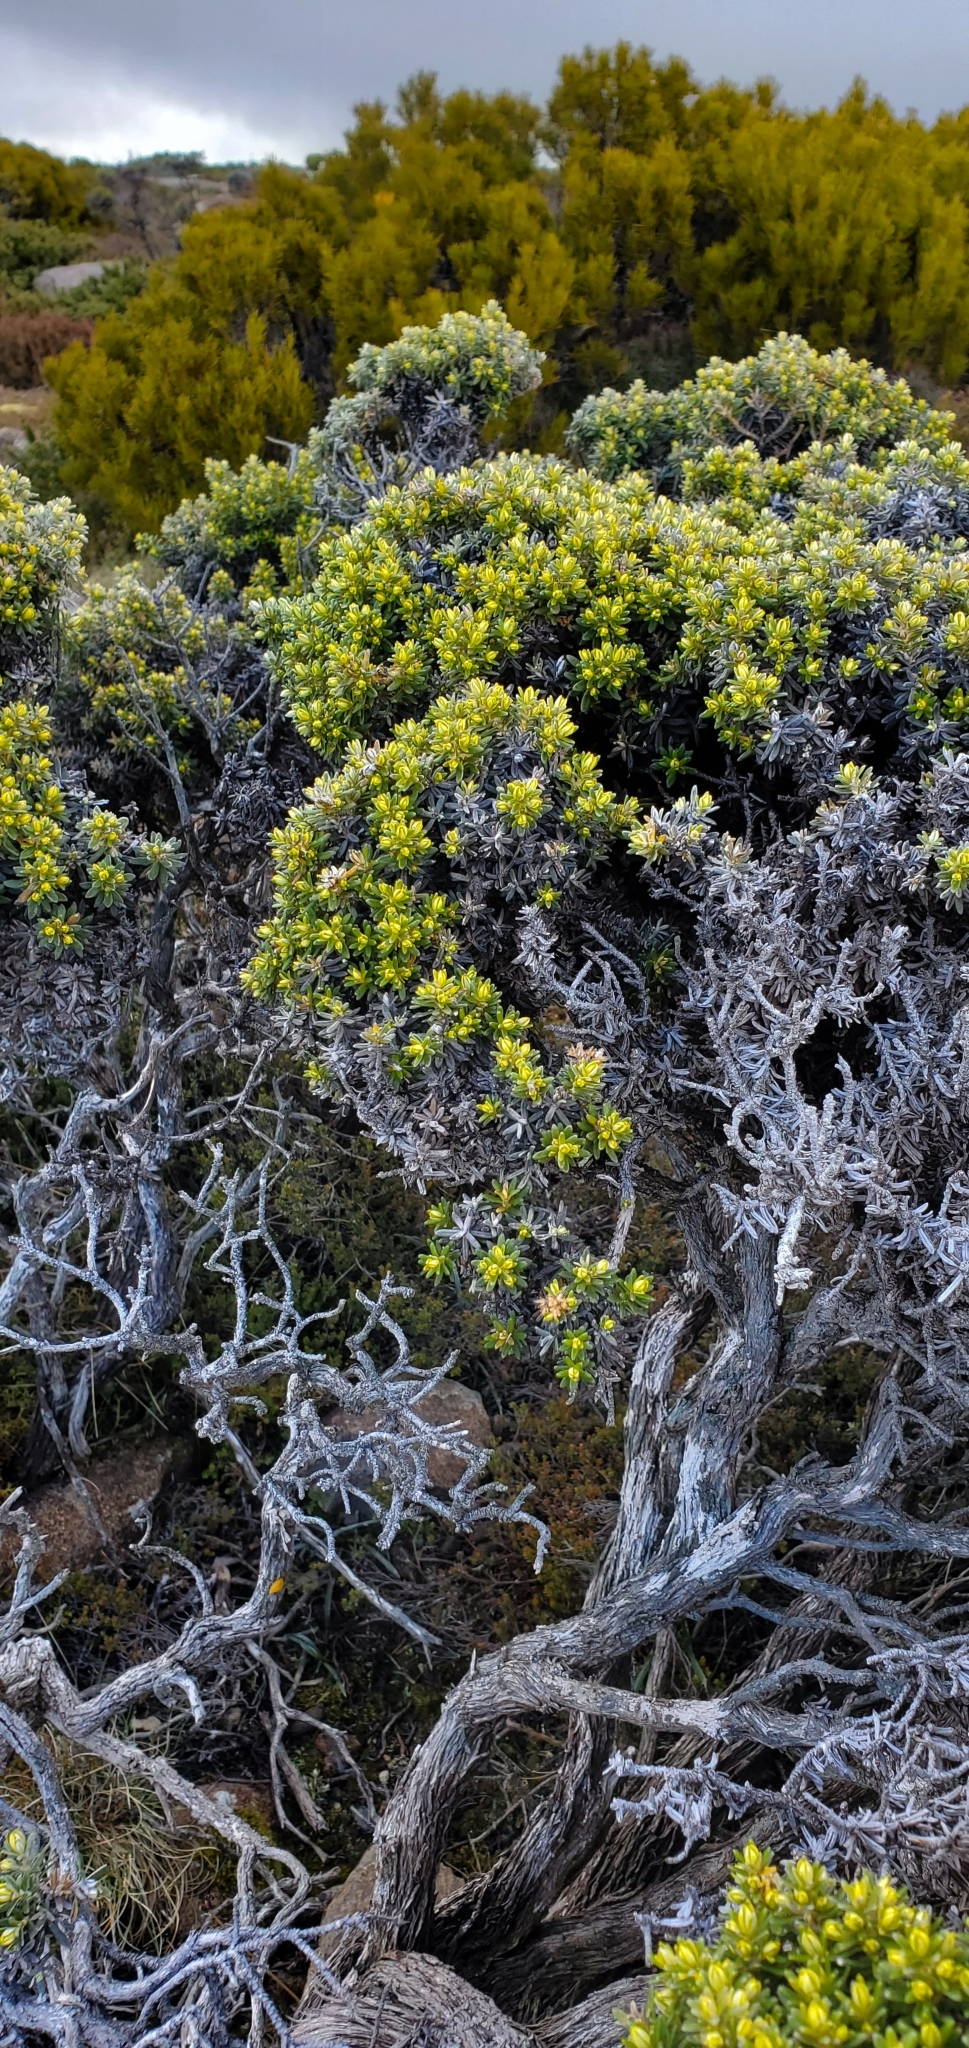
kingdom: Plantae
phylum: Tracheophyta
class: Magnoliopsida
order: Asterales
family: Asteraceae
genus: Ozothamnus
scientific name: Ozothamnus ledifolius
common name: Kerosene-weed
